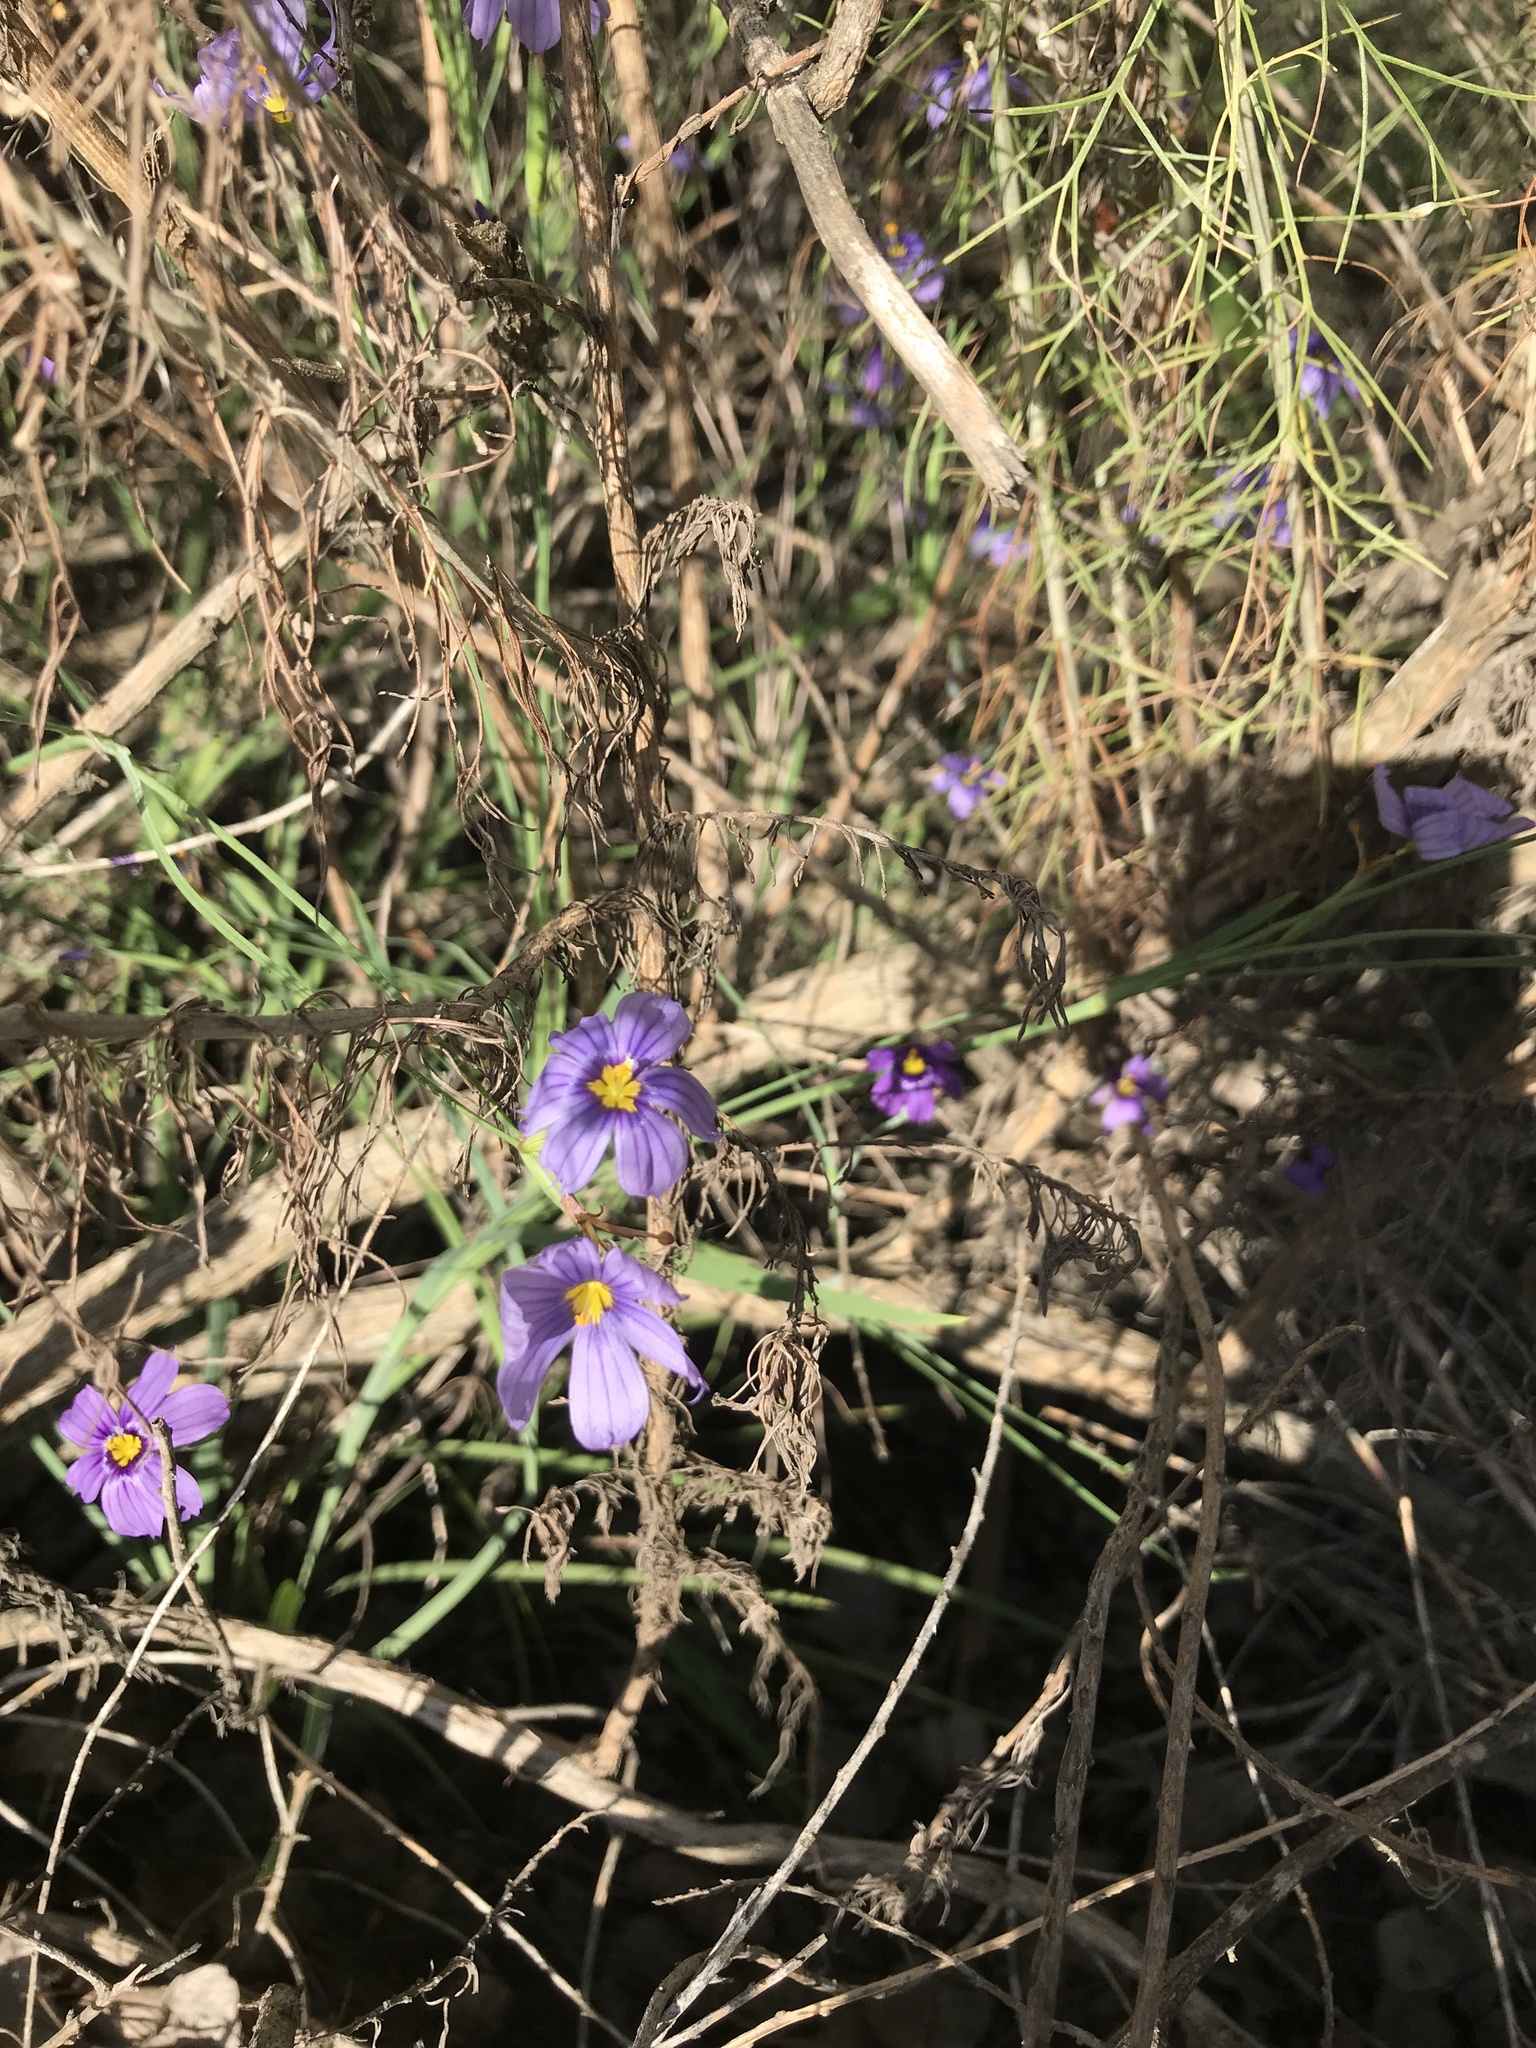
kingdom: Plantae
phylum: Tracheophyta
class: Liliopsida
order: Asparagales
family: Iridaceae
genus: Sisyrinchium
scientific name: Sisyrinchium bellum
